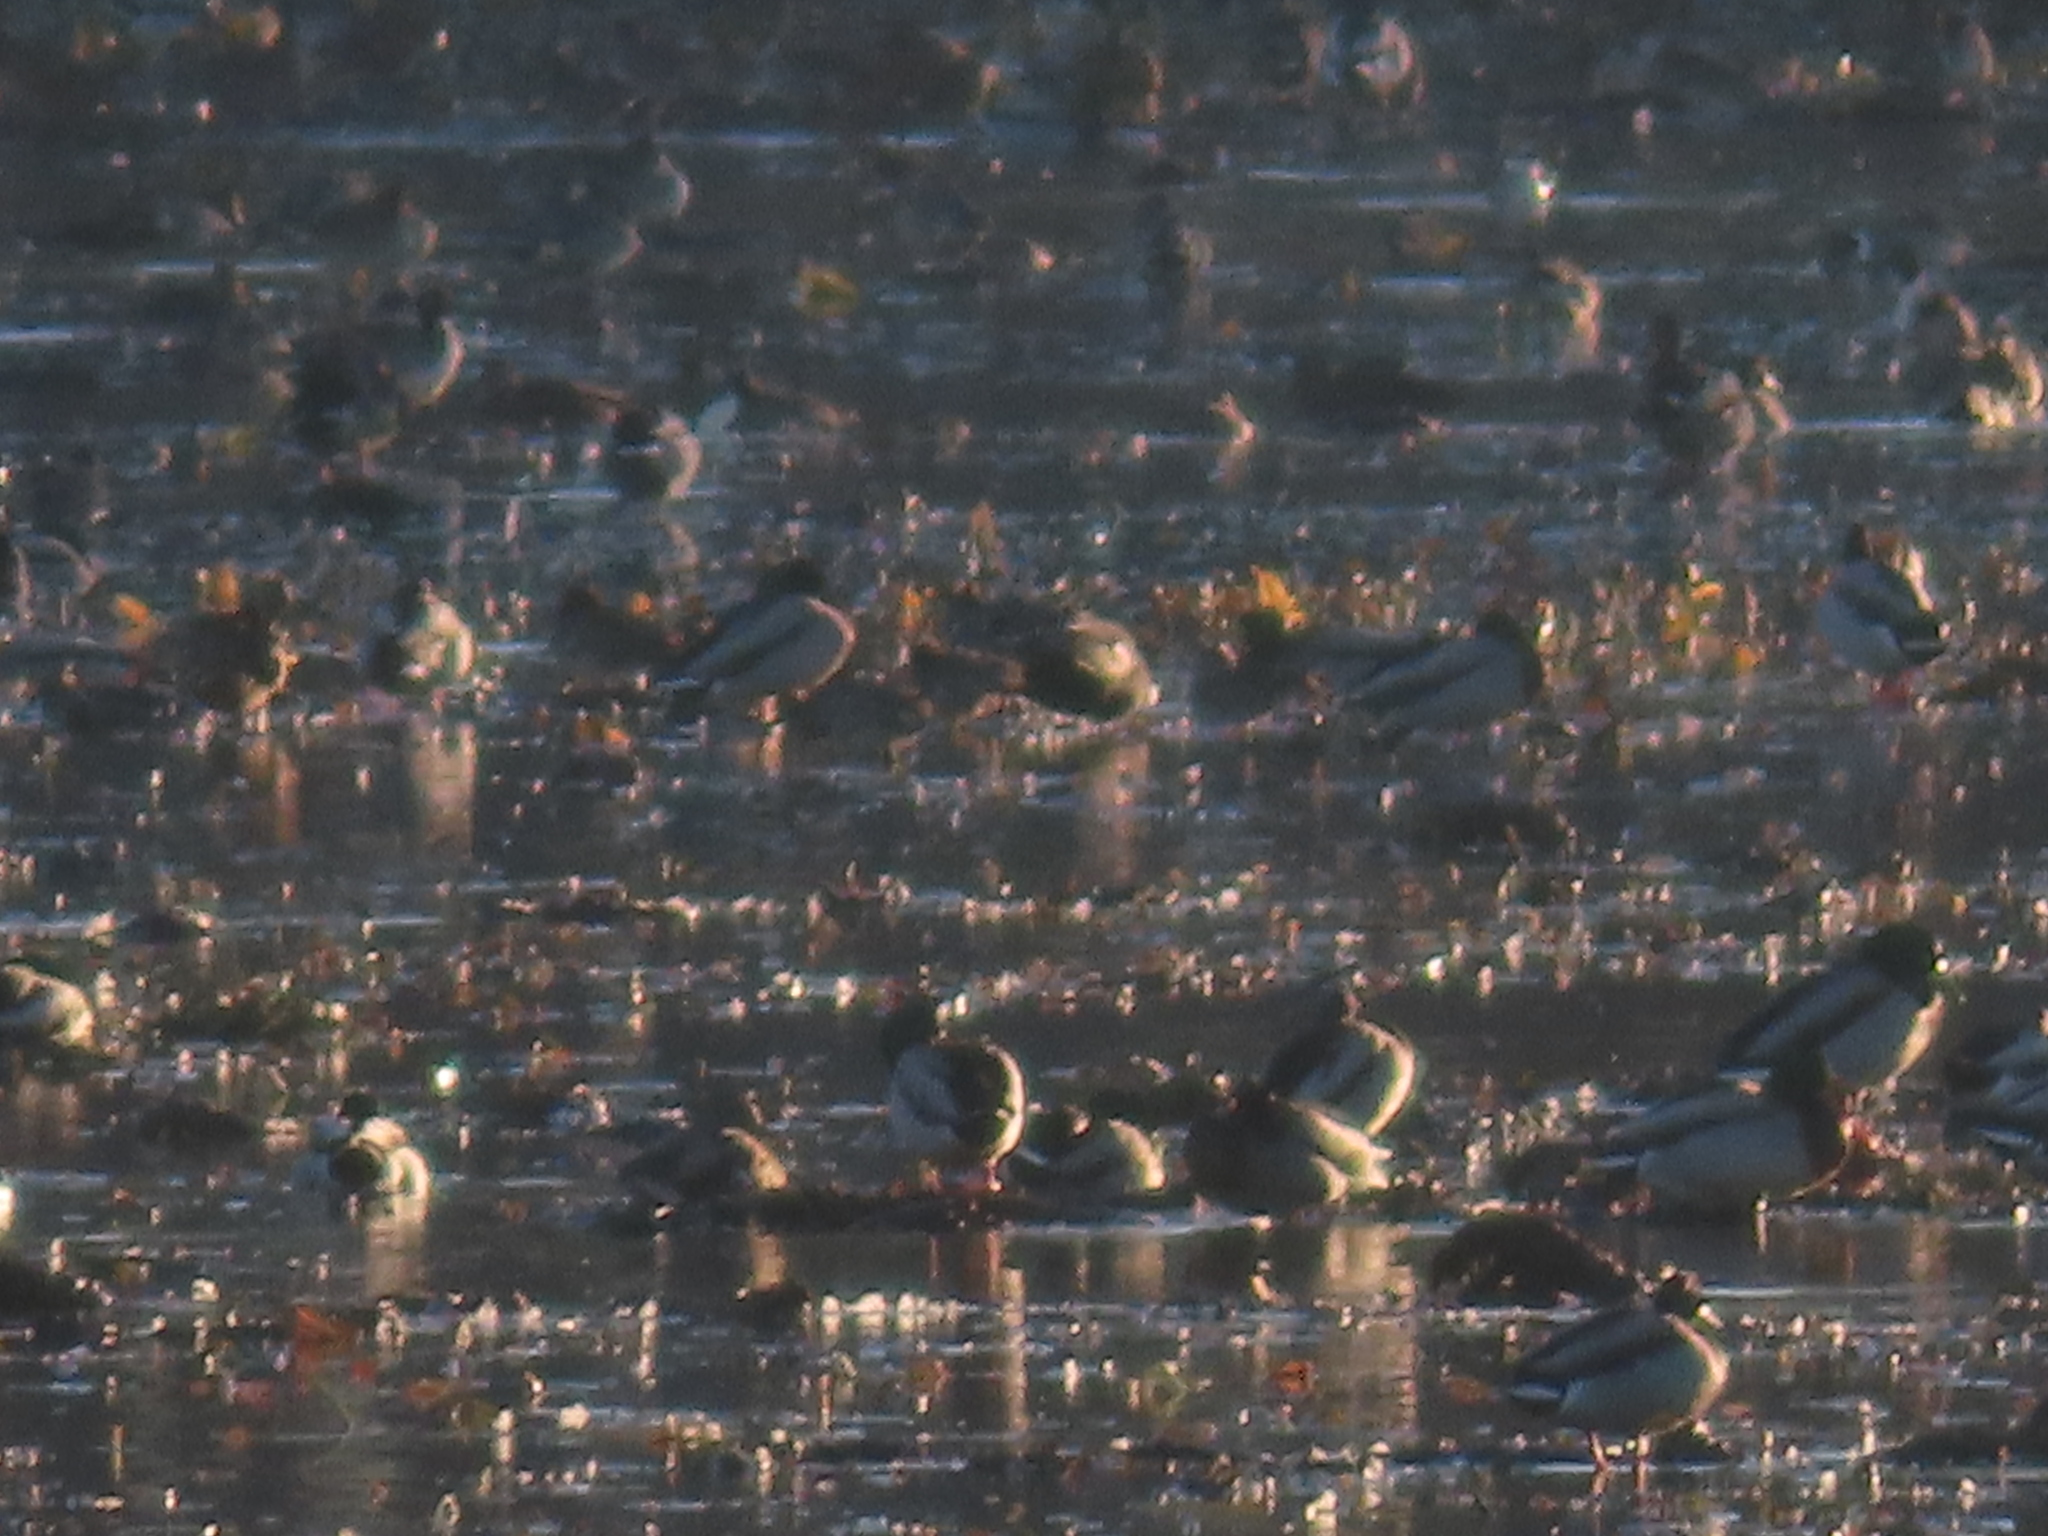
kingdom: Animalia
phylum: Chordata
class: Aves
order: Anseriformes
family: Anatidae
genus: Anas
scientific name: Anas platyrhynchos
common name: Mallard
